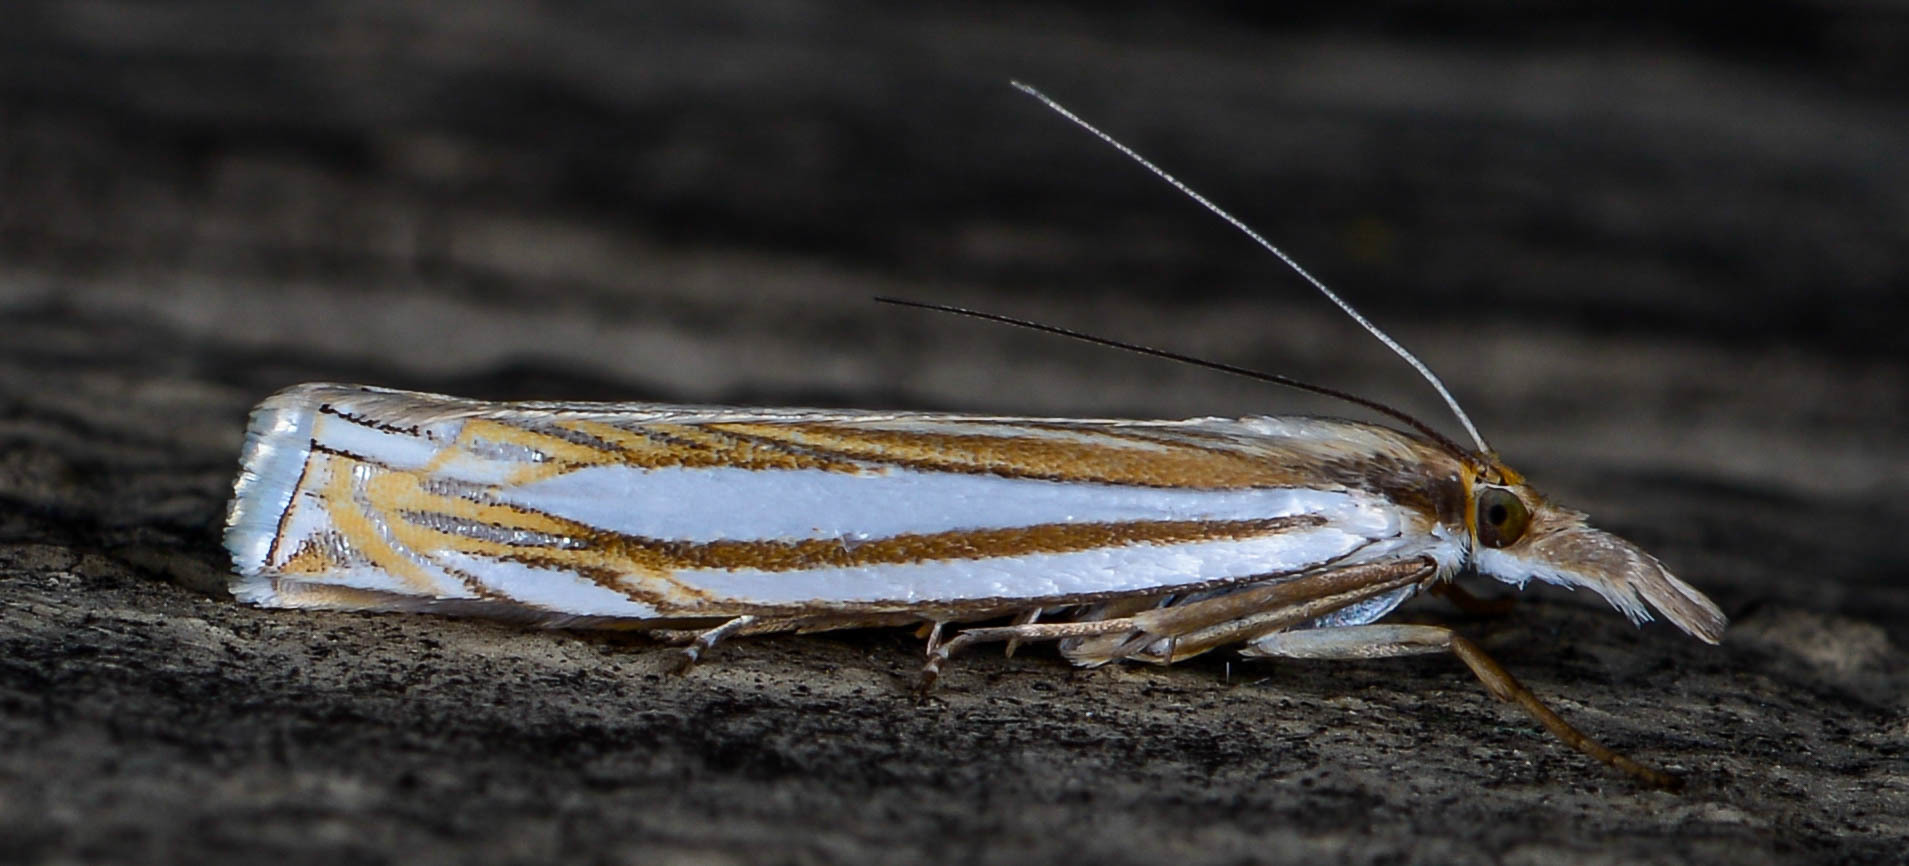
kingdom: Animalia
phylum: Arthropoda
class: Insecta
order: Lepidoptera
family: Crambidae
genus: Crambus
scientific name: Crambus laqueatellus
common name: Eastern grass-veneer
